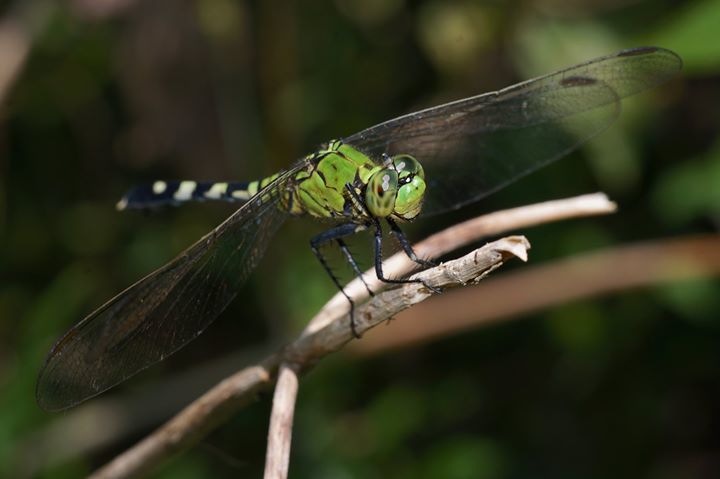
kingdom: Animalia
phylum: Arthropoda
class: Insecta
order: Odonata
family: Libellulidae
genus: Erythemis
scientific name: Erythemis simplicicollis
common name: Eastern pondhawk
